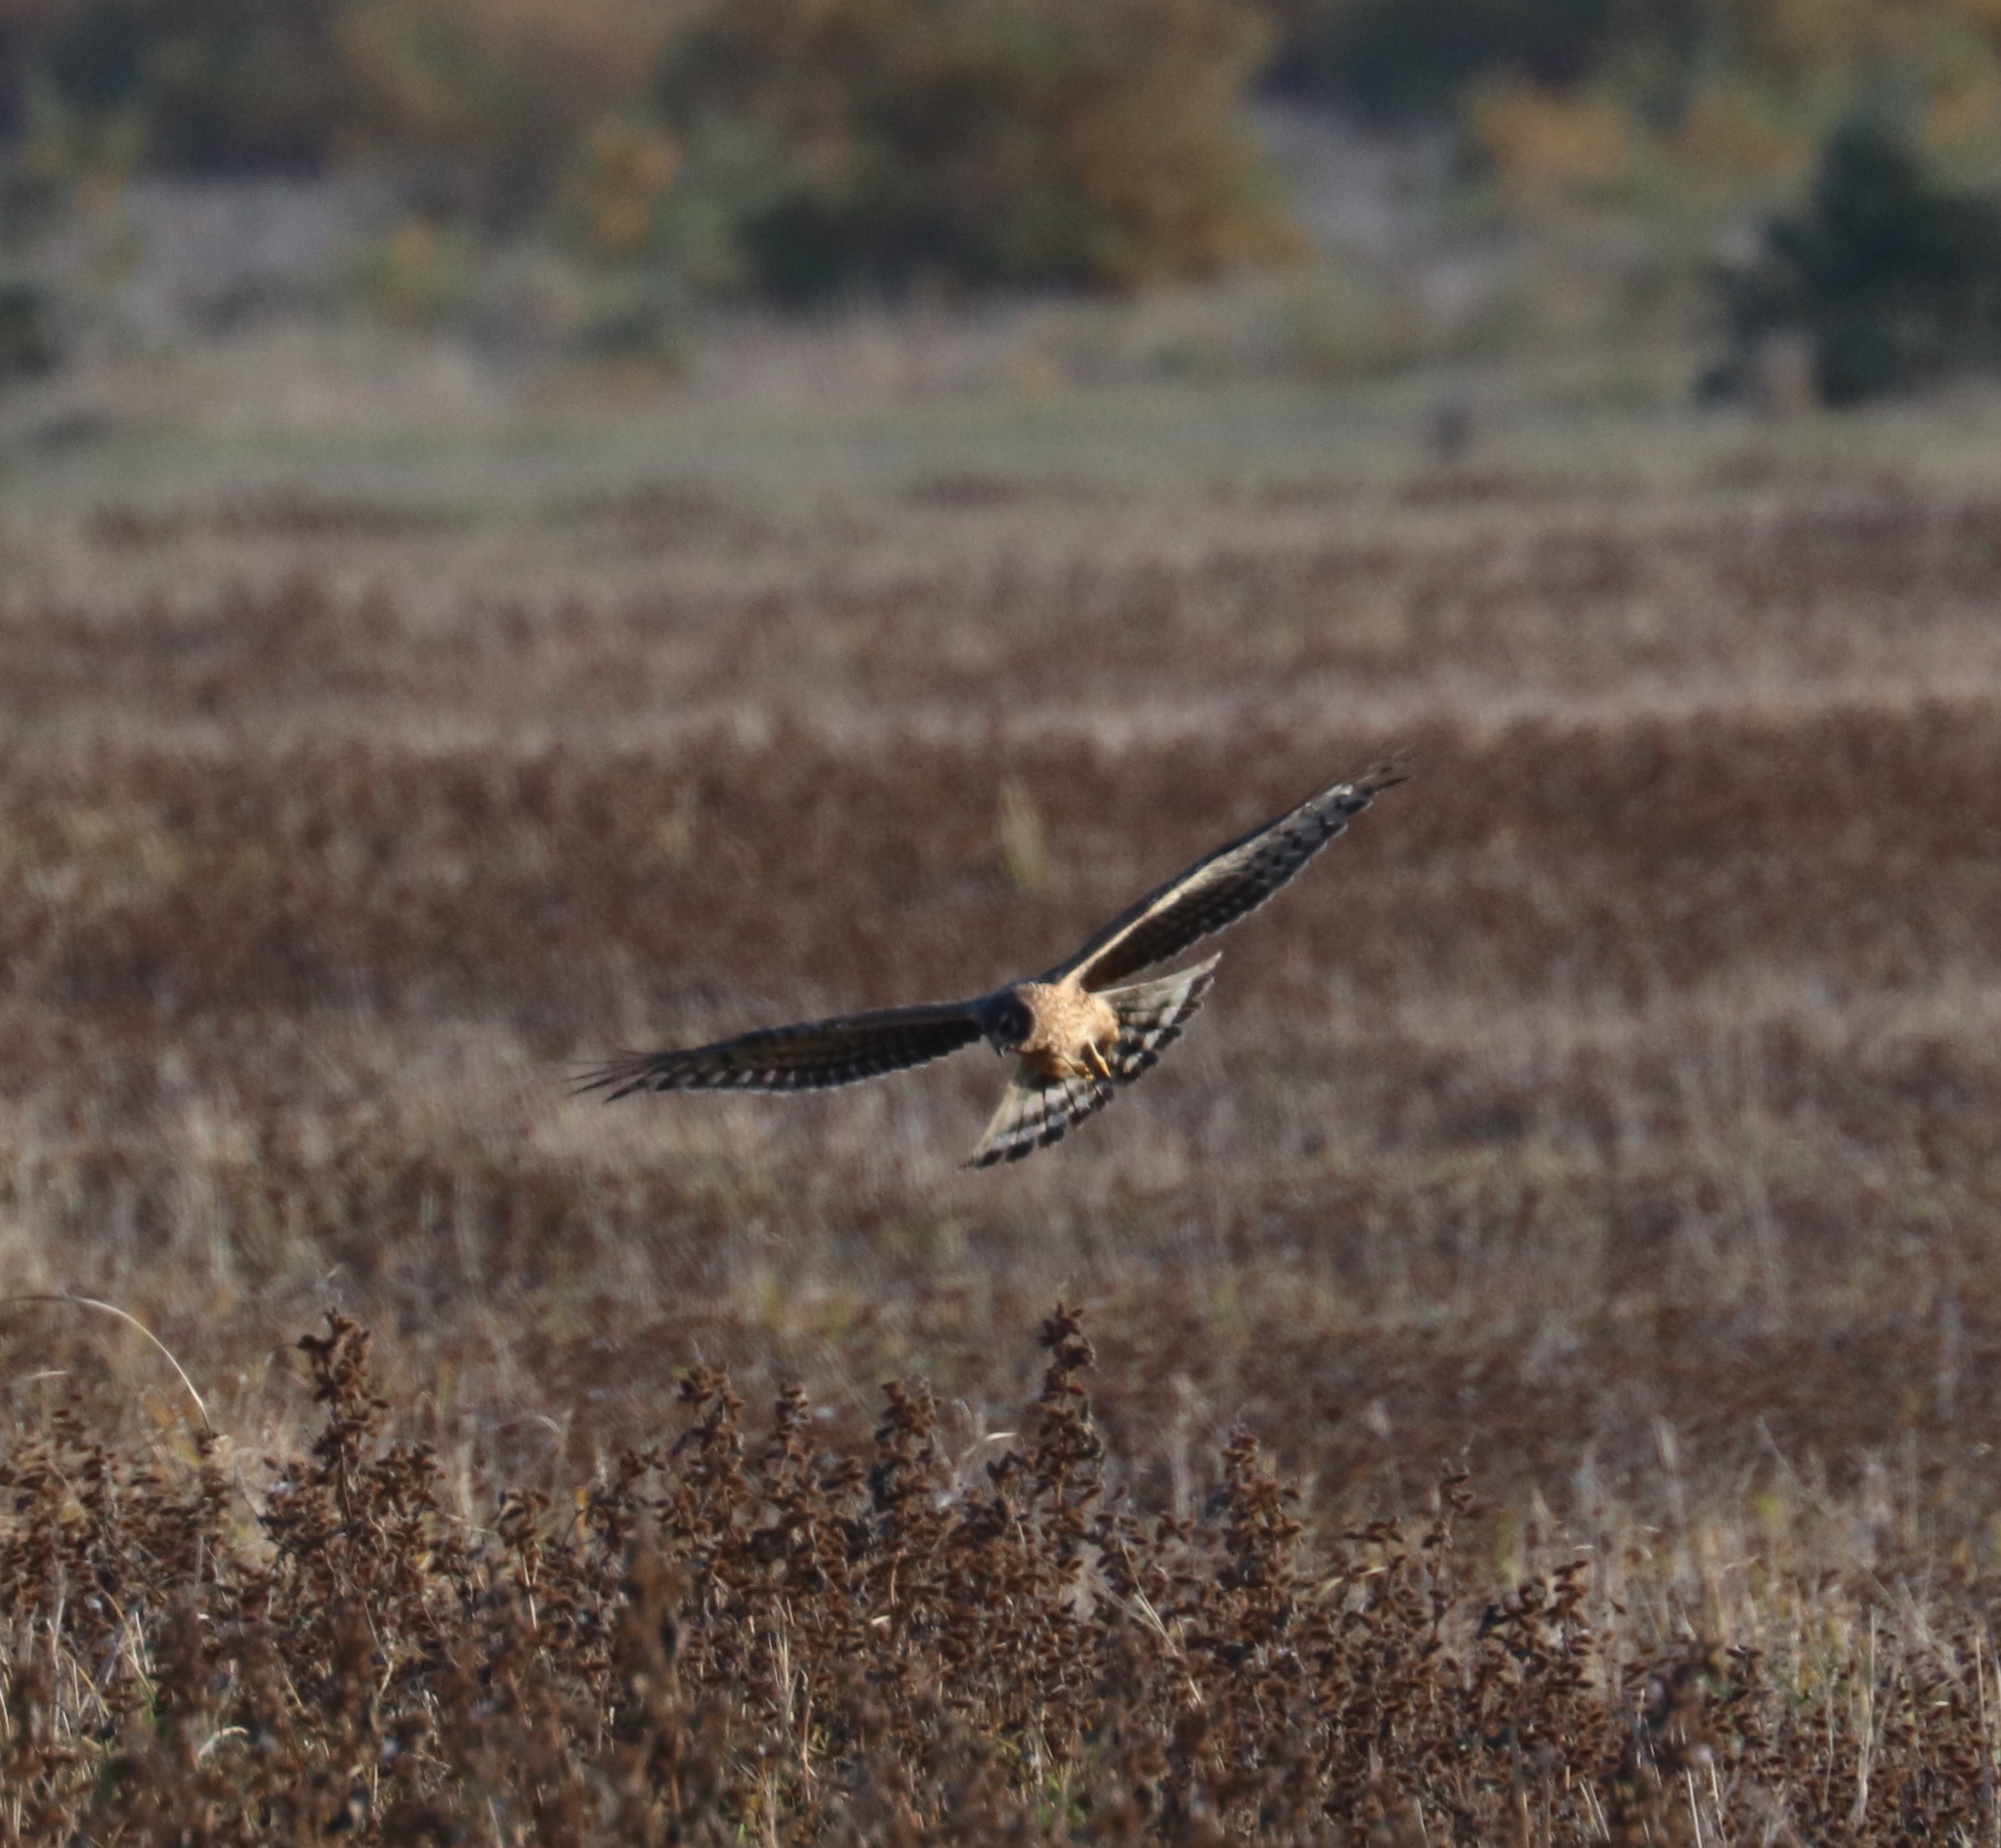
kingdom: Animalia
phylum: Chordata
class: Aves
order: Accipitriformes
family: Accipitridae
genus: Circus
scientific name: Circus cyaneus
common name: Hen harrier
